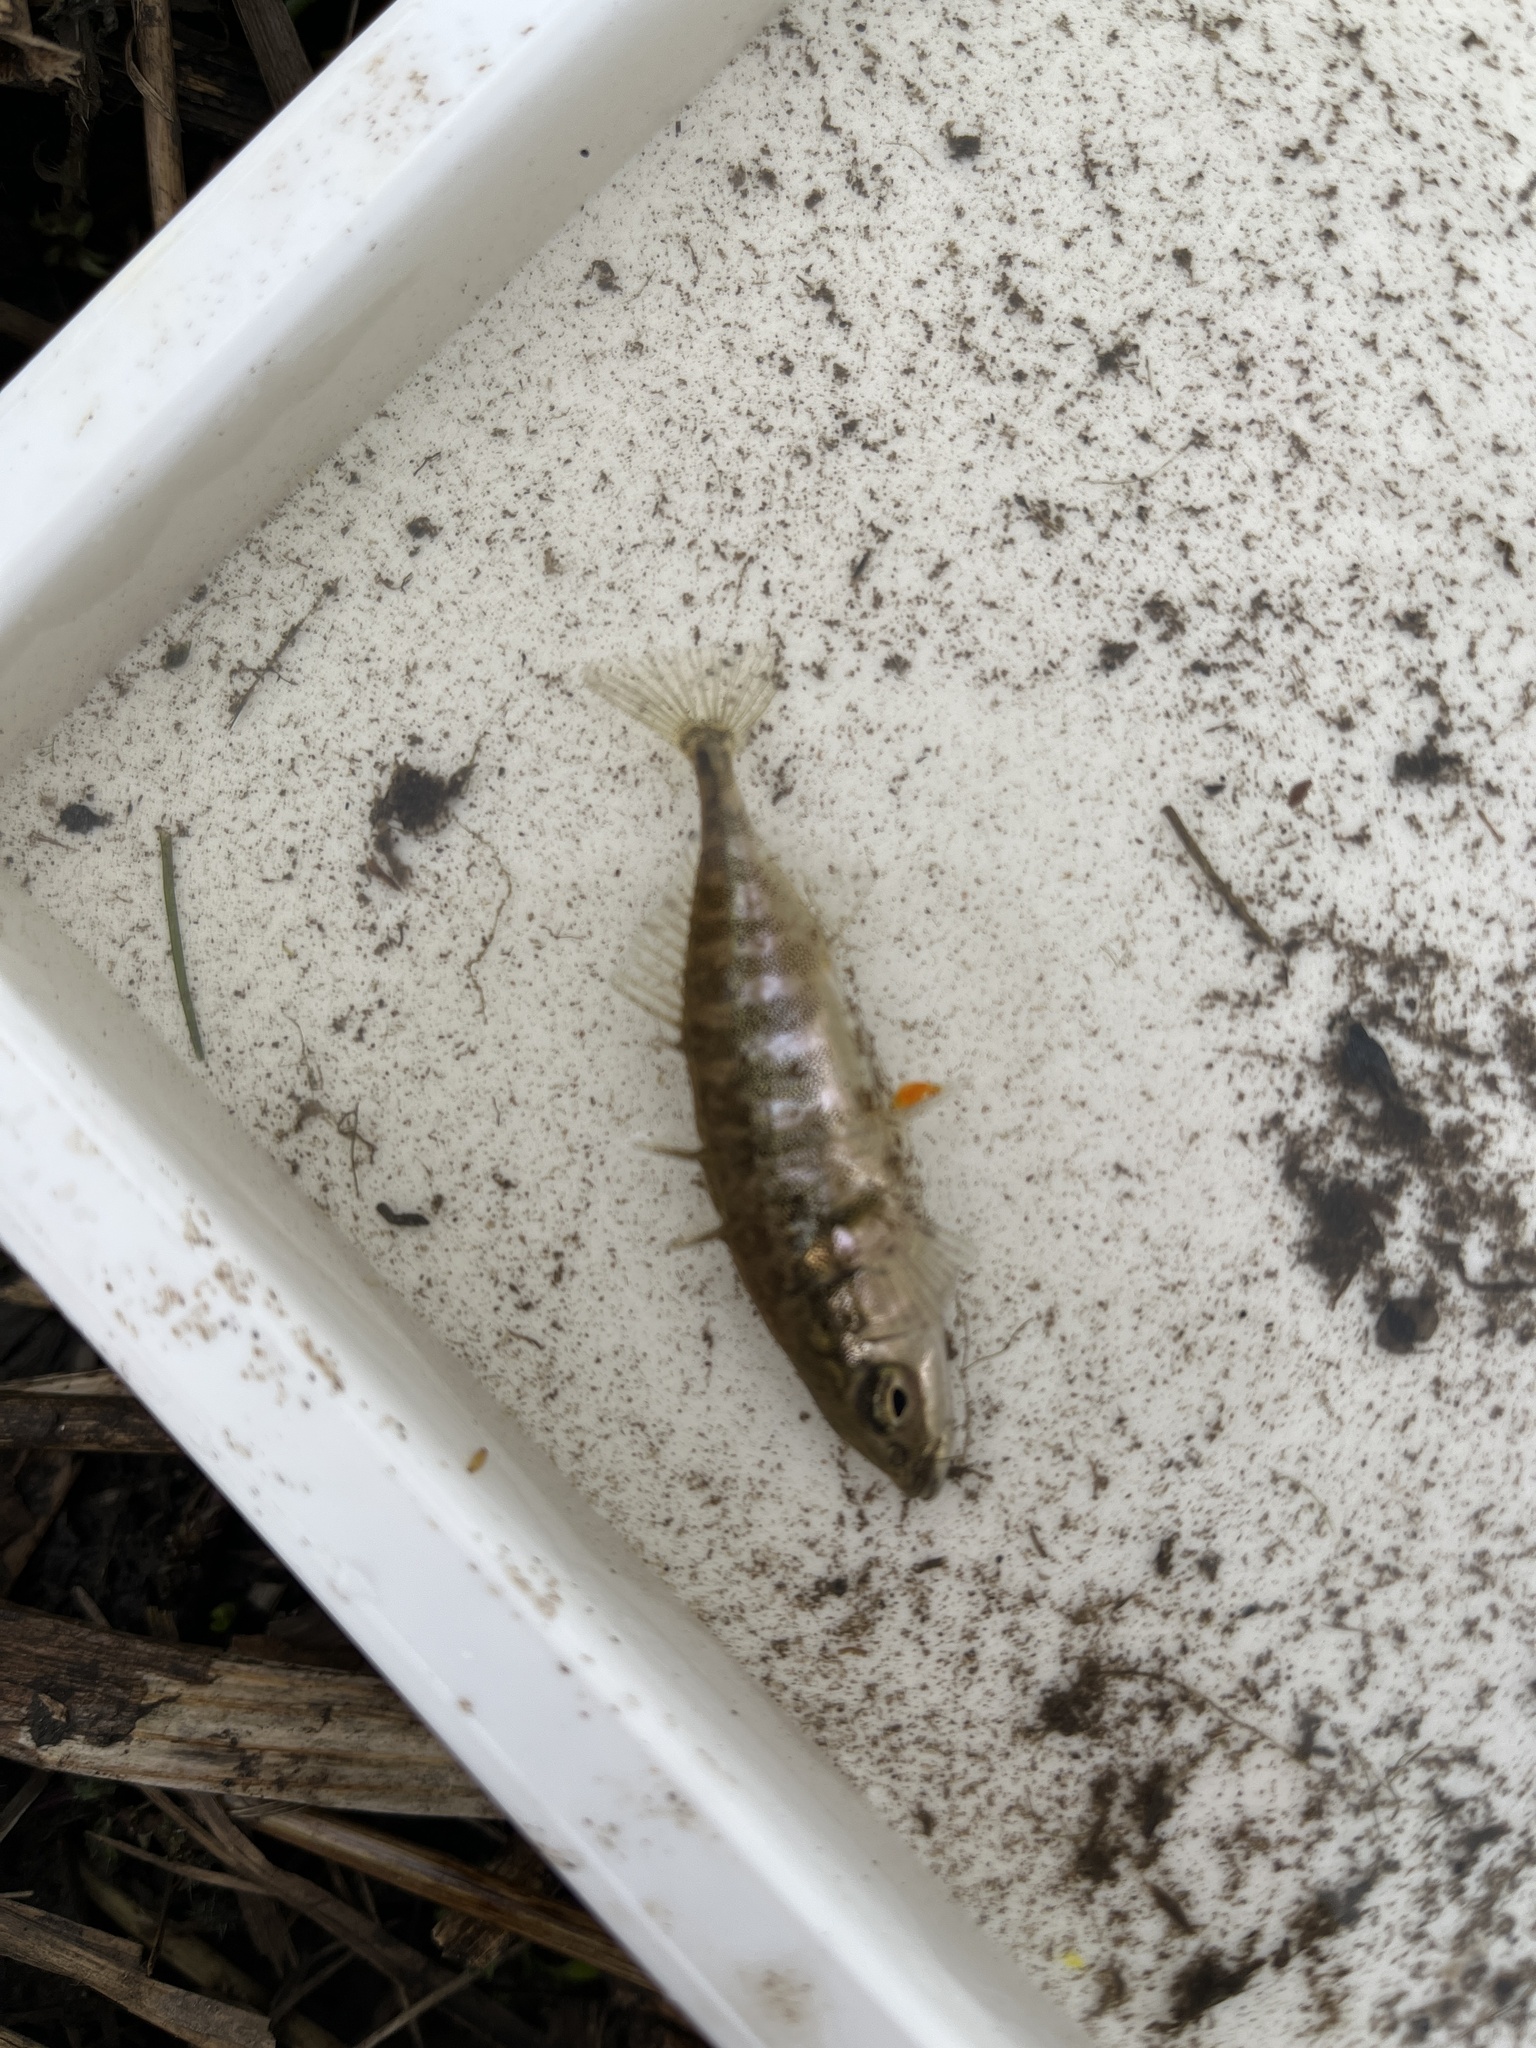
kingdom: Animalia
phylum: Chordata
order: Gasterosteiformes
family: Gasterosteidae
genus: Gasterosteus
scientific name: Gasterosteus aculeatus
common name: Three-spined stickleback
